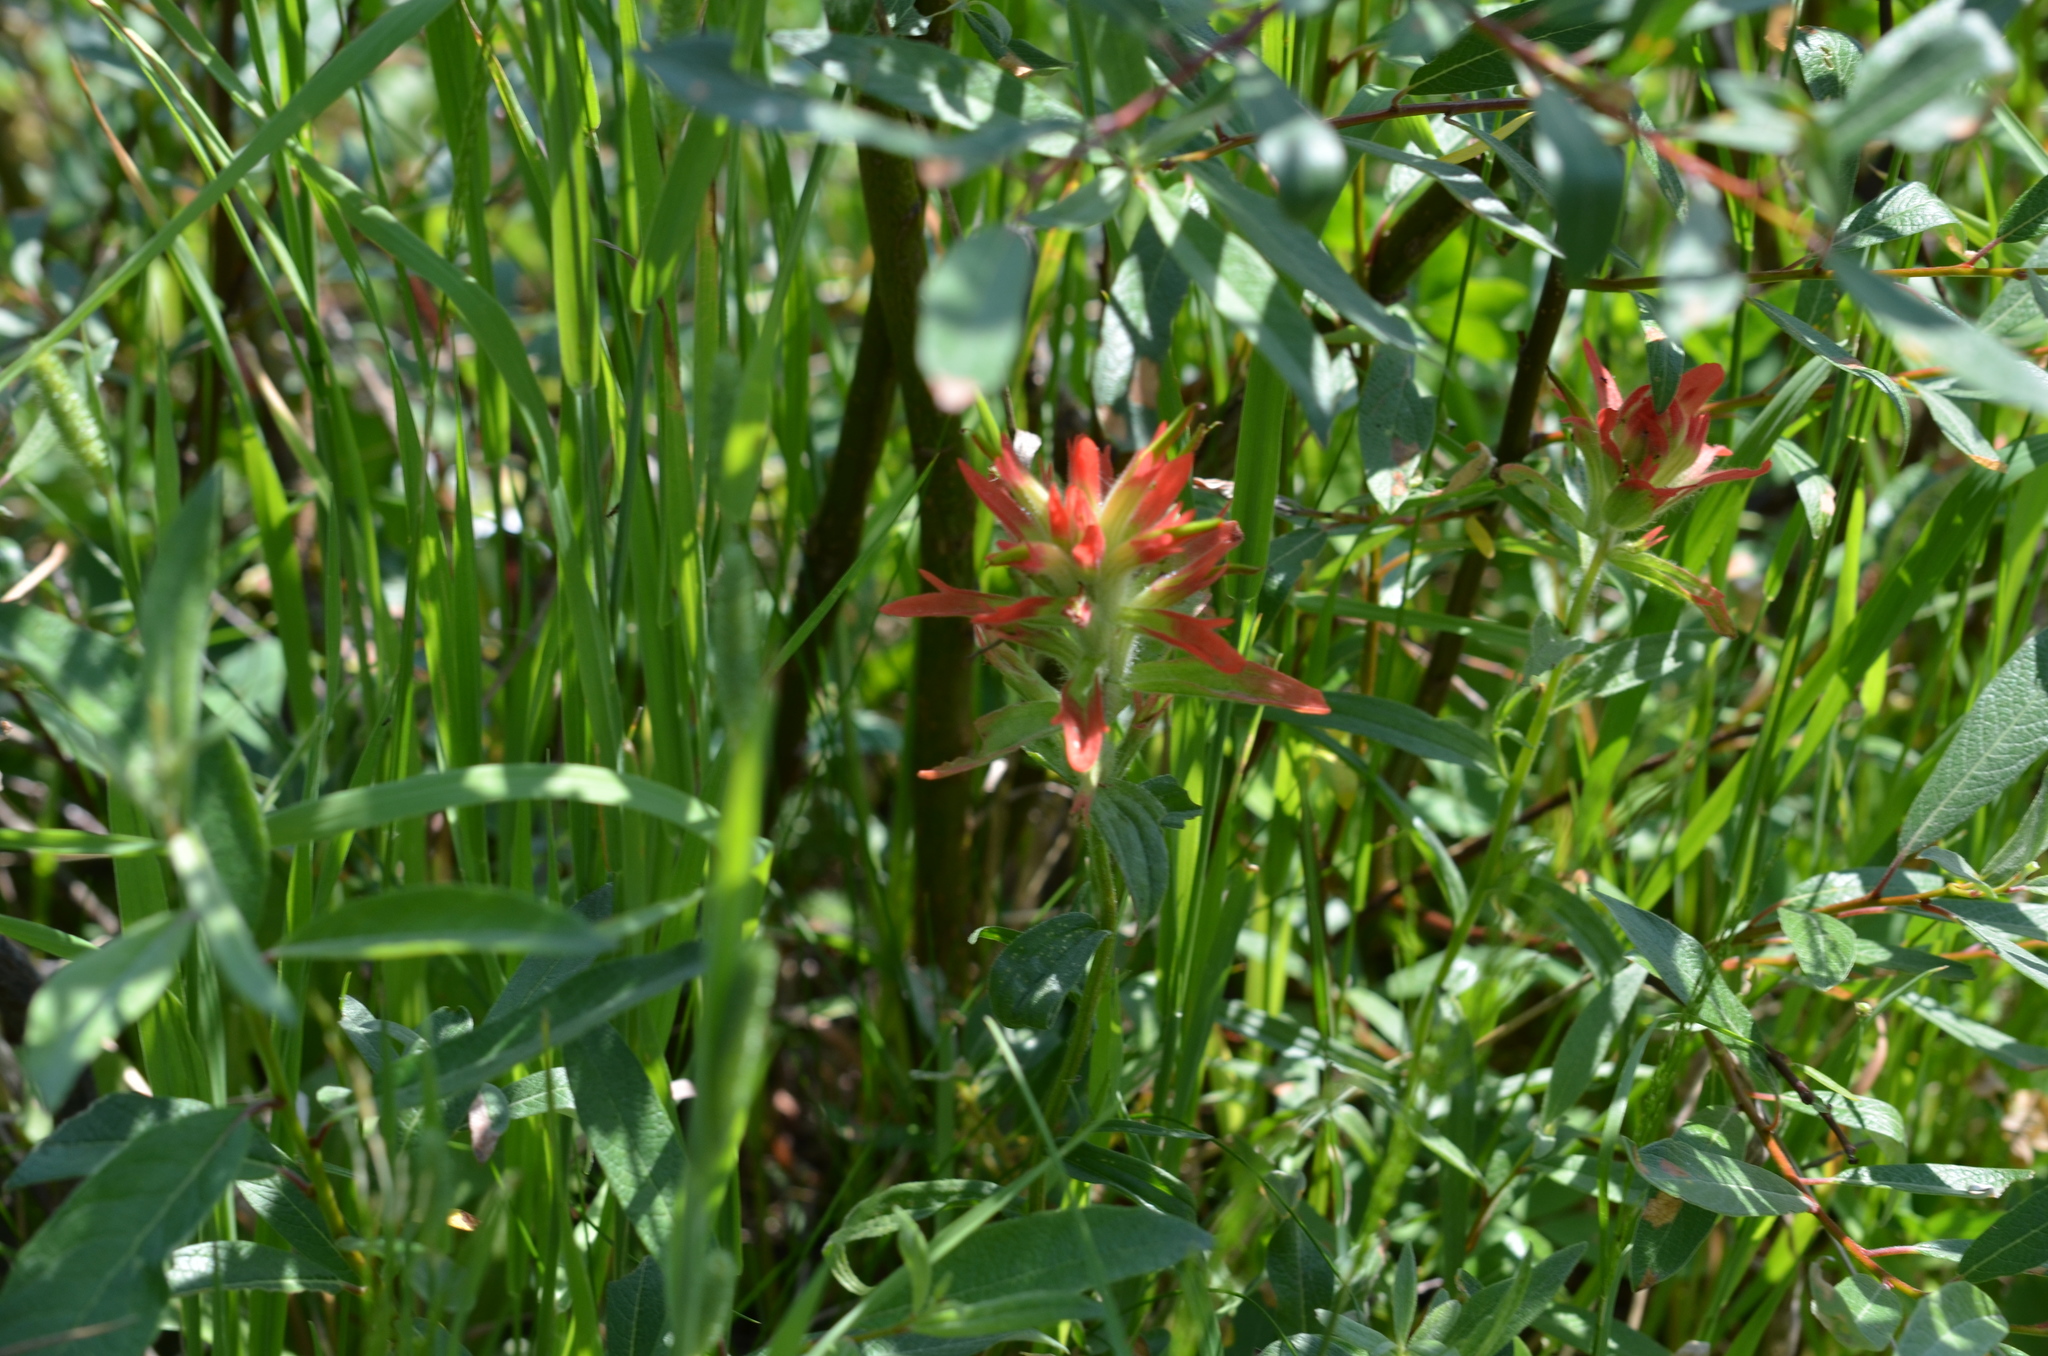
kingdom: Plantae
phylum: Tracheophyta
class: Magnoliopsida
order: Lamiales
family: Orobanchaceae
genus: Castilleja
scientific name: Castilleja miniata
